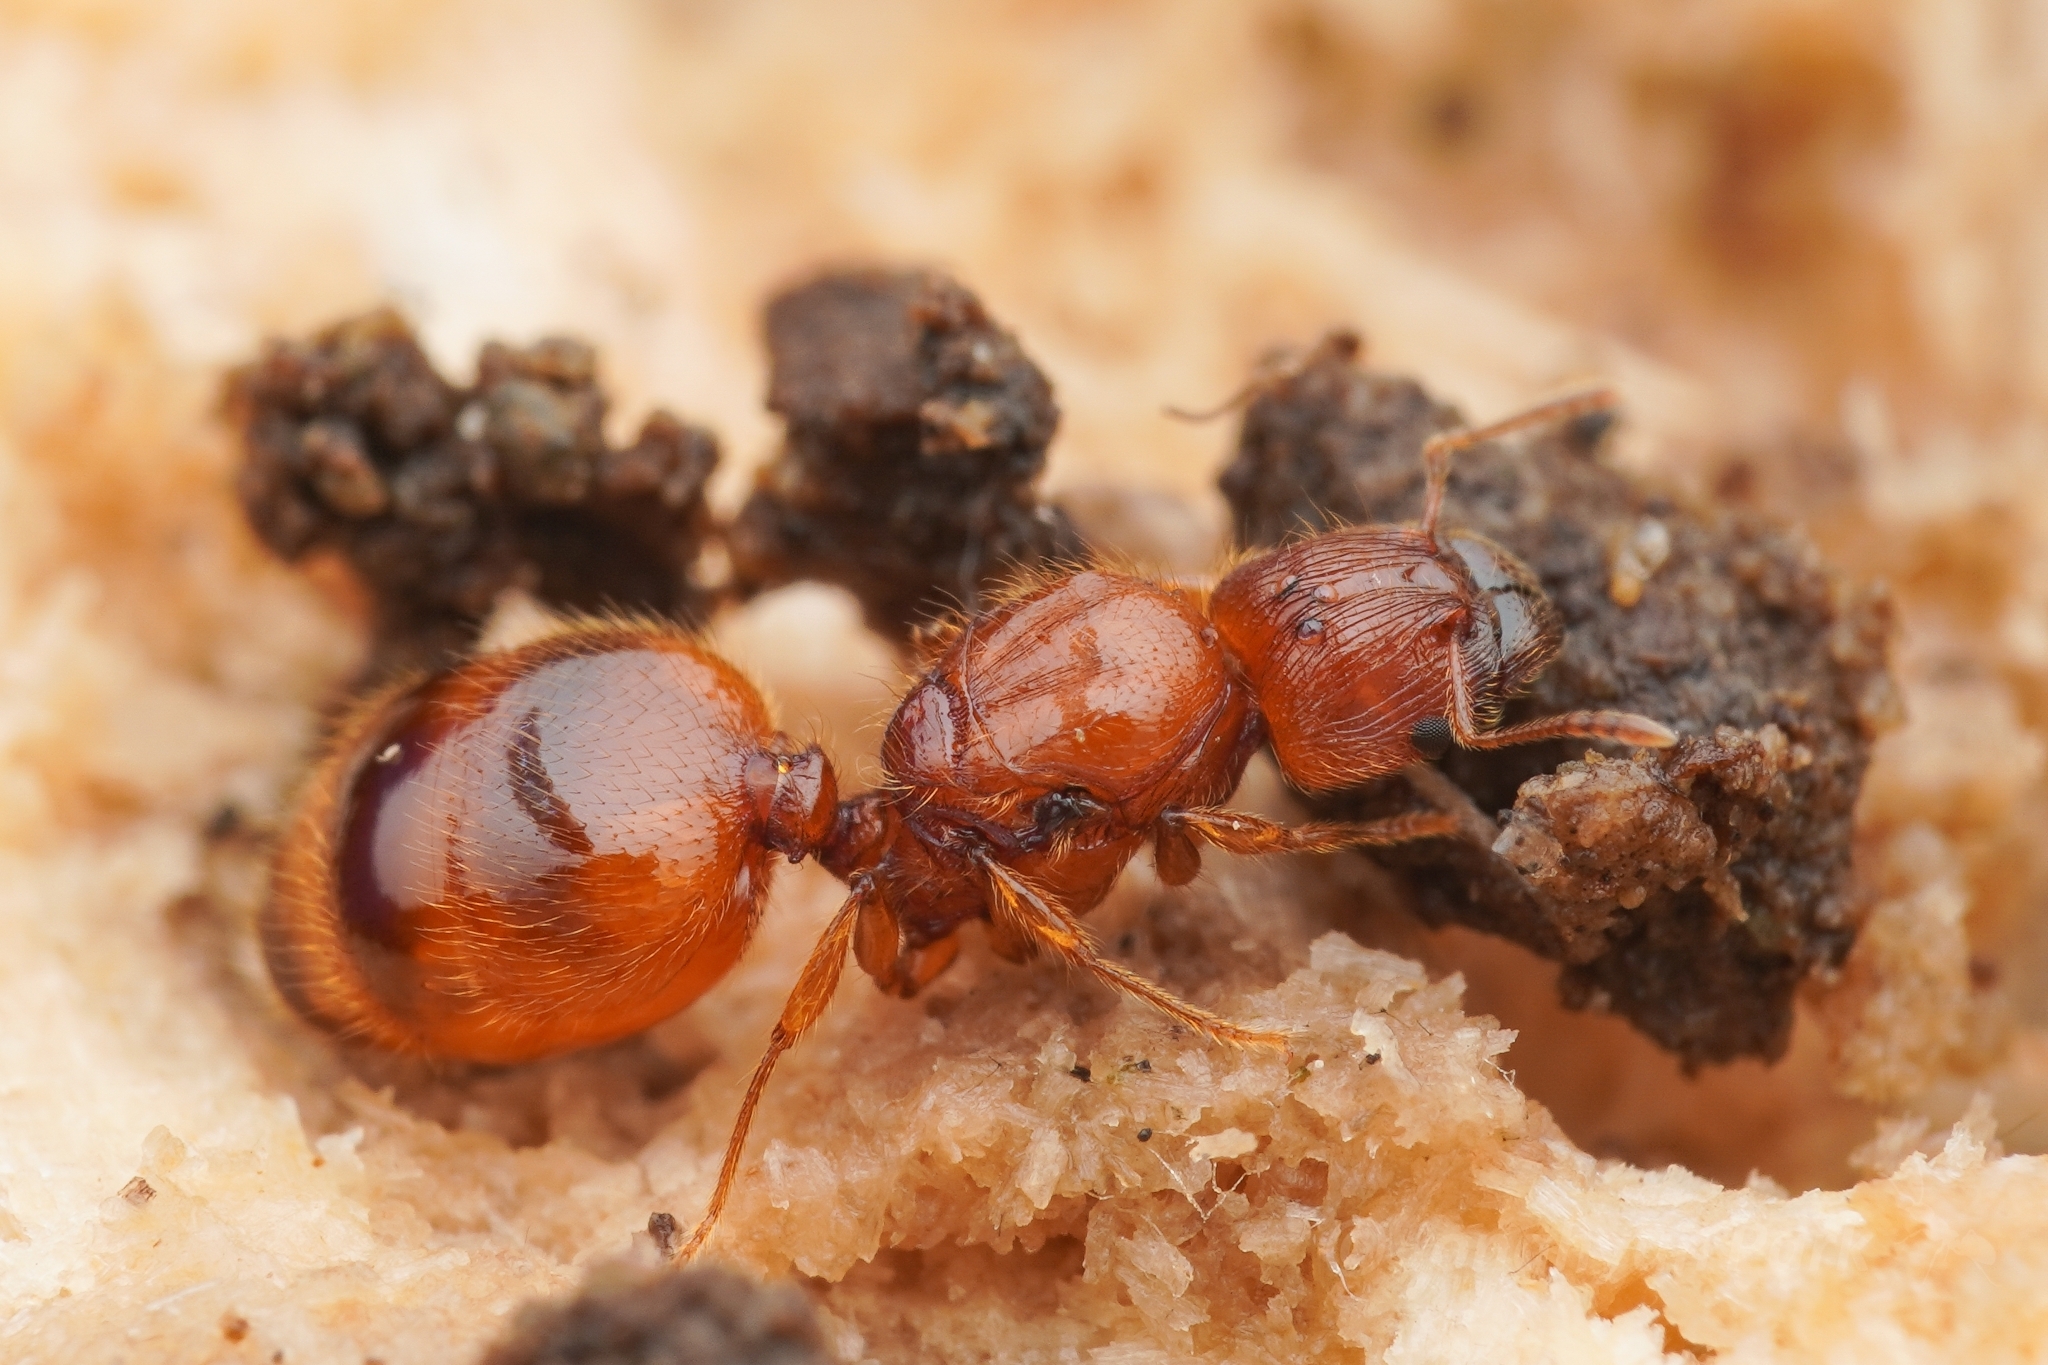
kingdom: Animalia
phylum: Arthropoda
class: Insecta
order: Hymenoptera
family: Formicidae
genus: Pheidole
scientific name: Pheidole fervida
